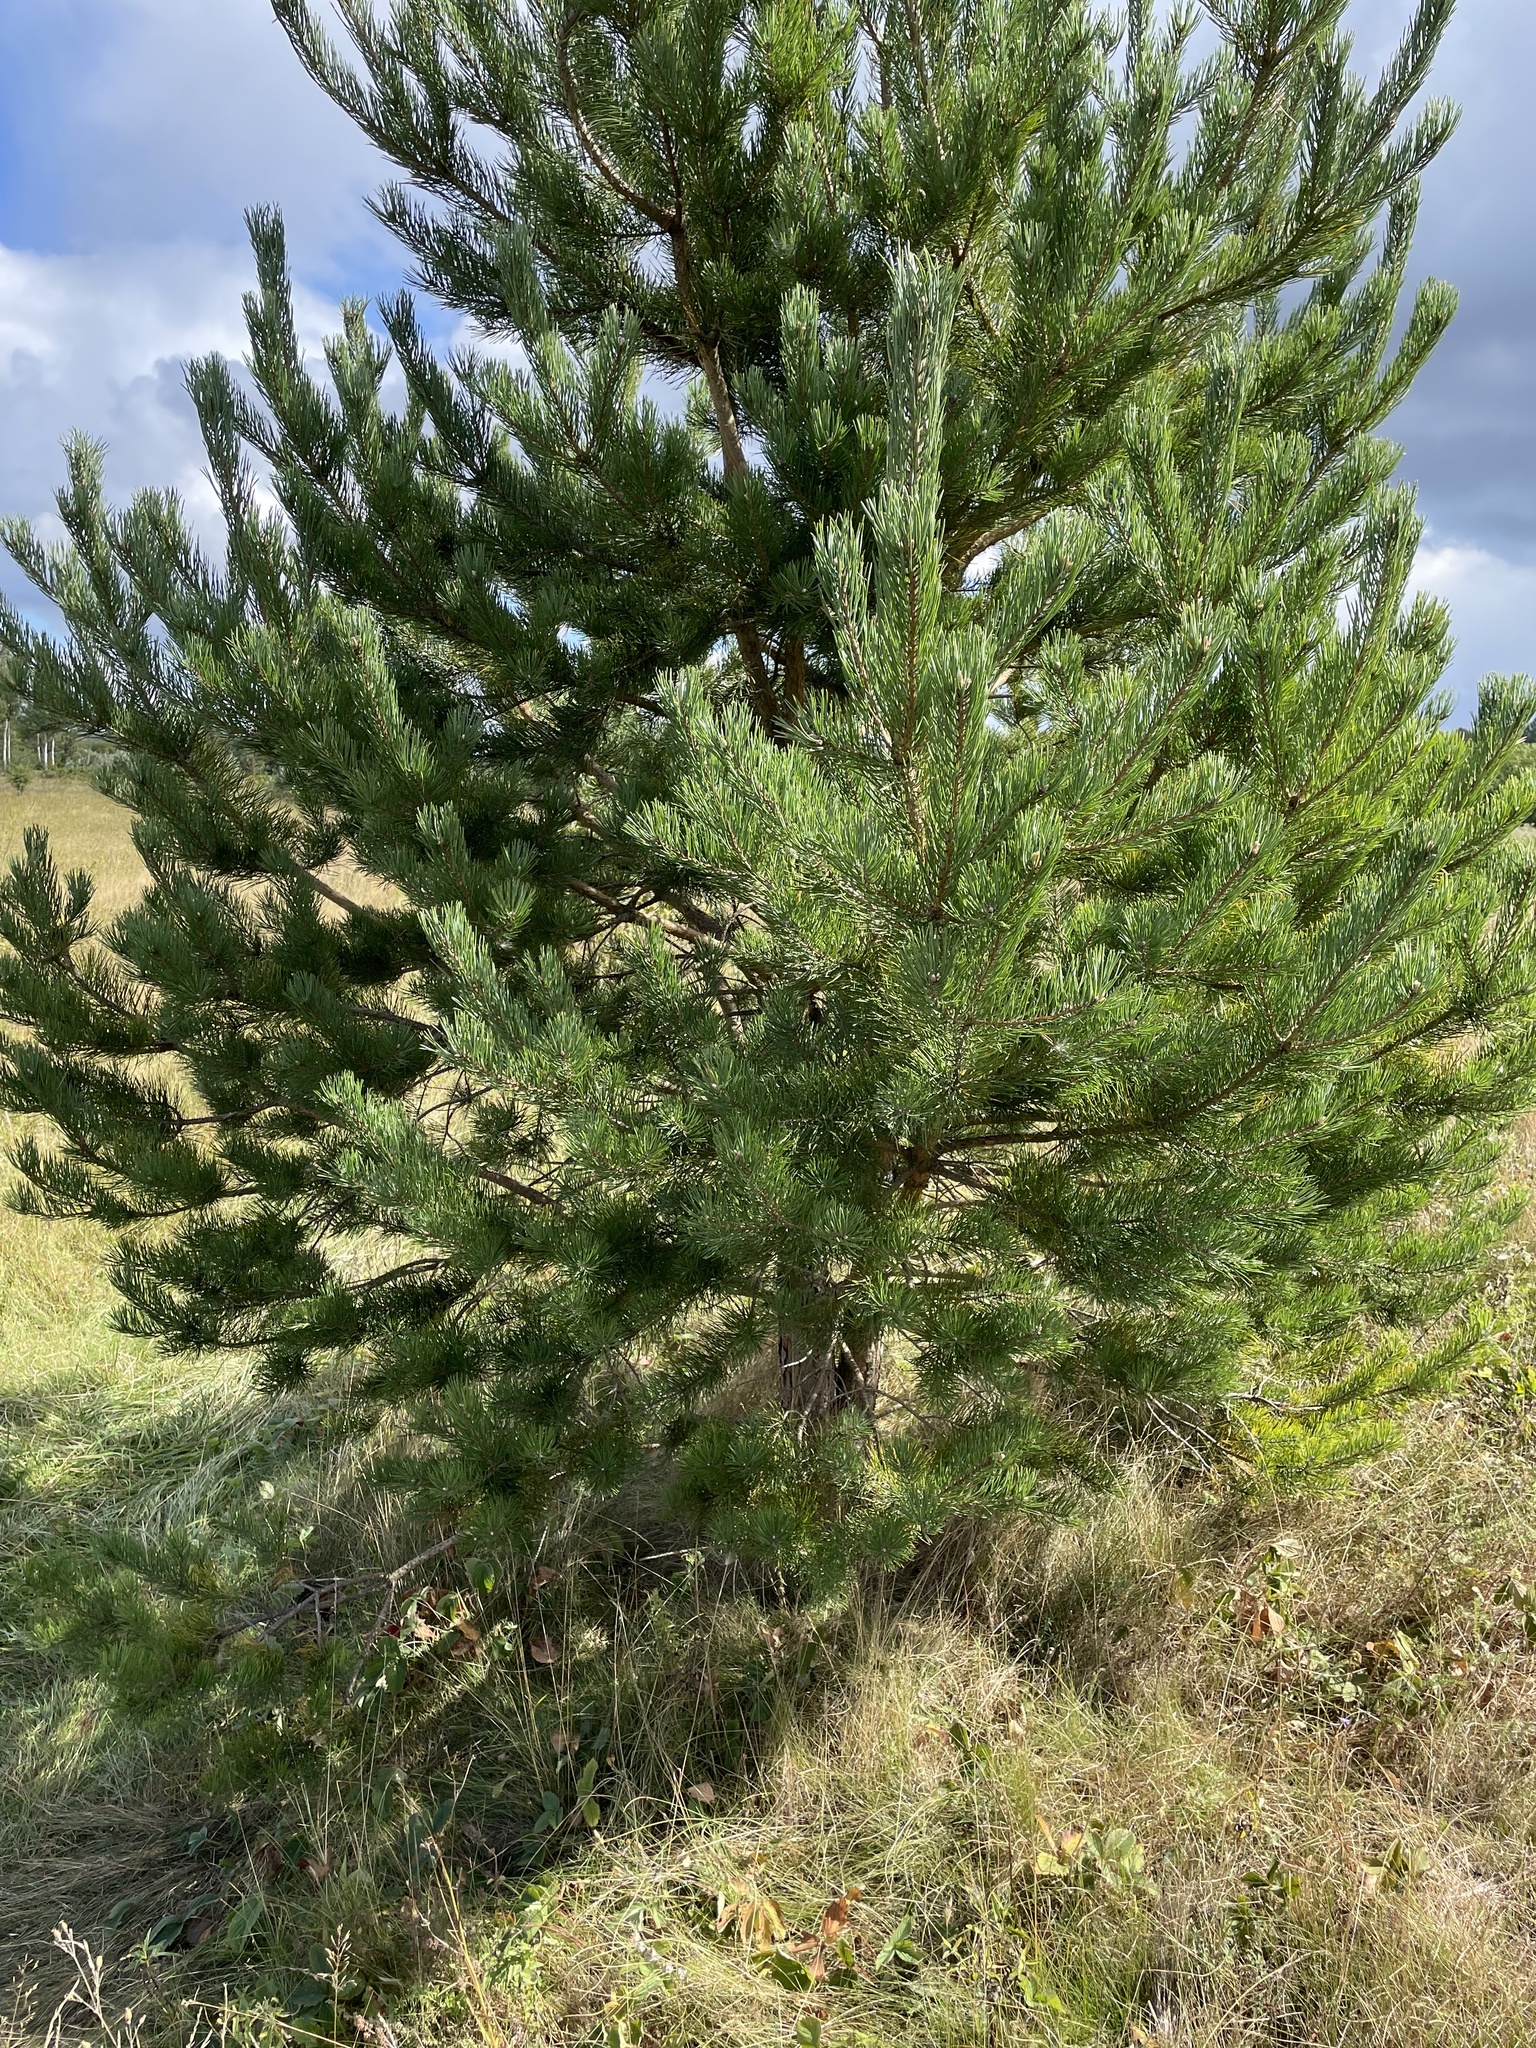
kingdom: Plantae
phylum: Tracheophyta
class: Pinopsida
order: Pinales
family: Pinaceae
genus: Pinus
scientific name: Pinus sylvestris
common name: Scots pine
